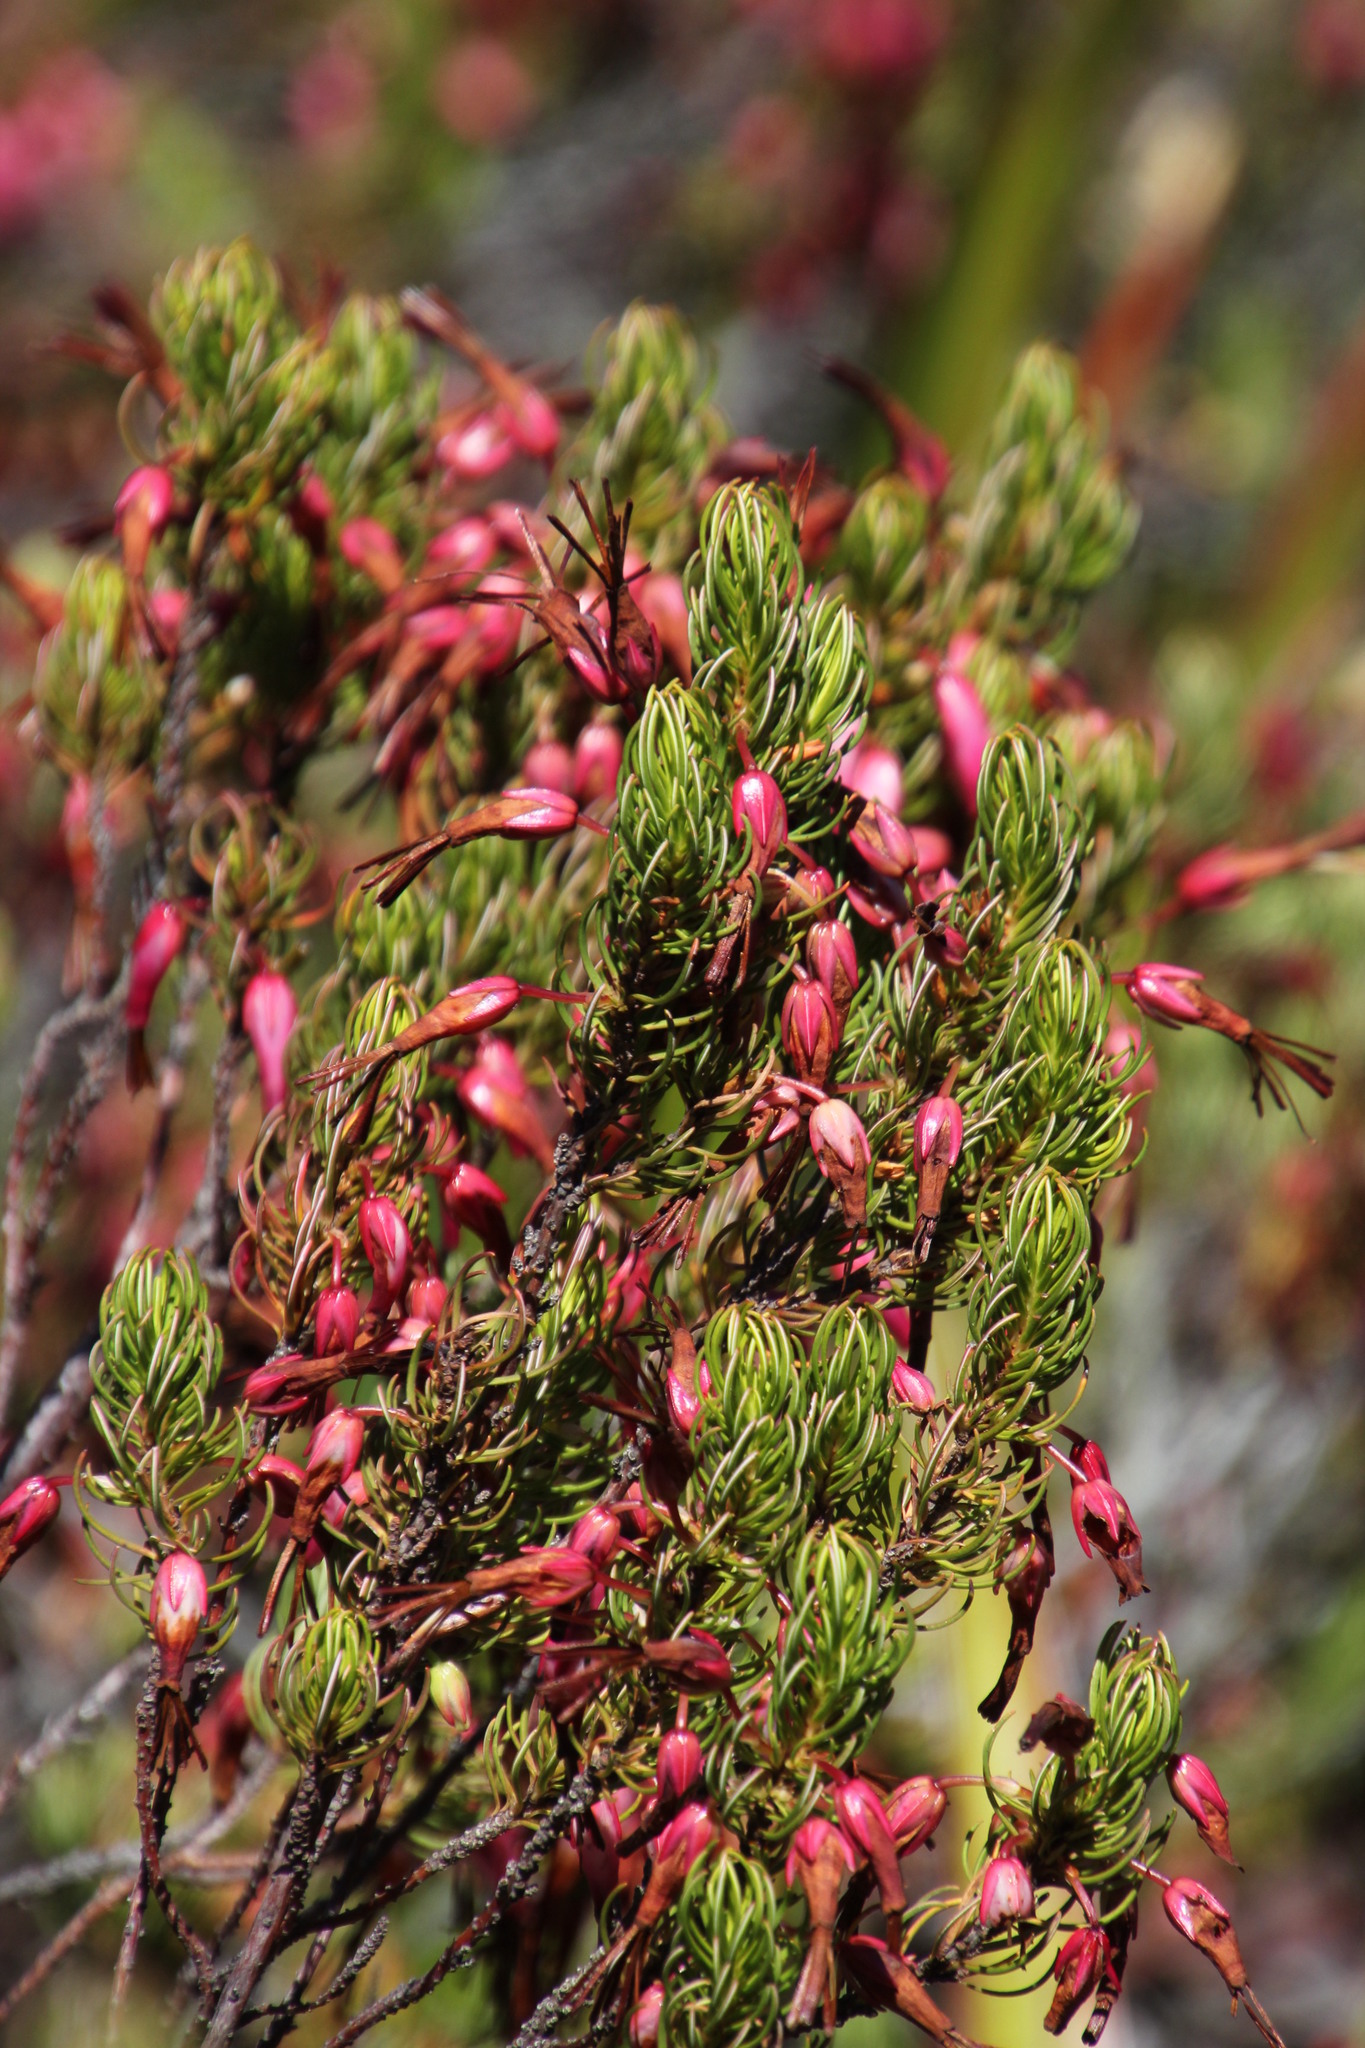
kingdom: Plantae
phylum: Tracheophyta
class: Magnoliopsida
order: Ericales
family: Ericaceae
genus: Erica
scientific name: Erica plukenetii
